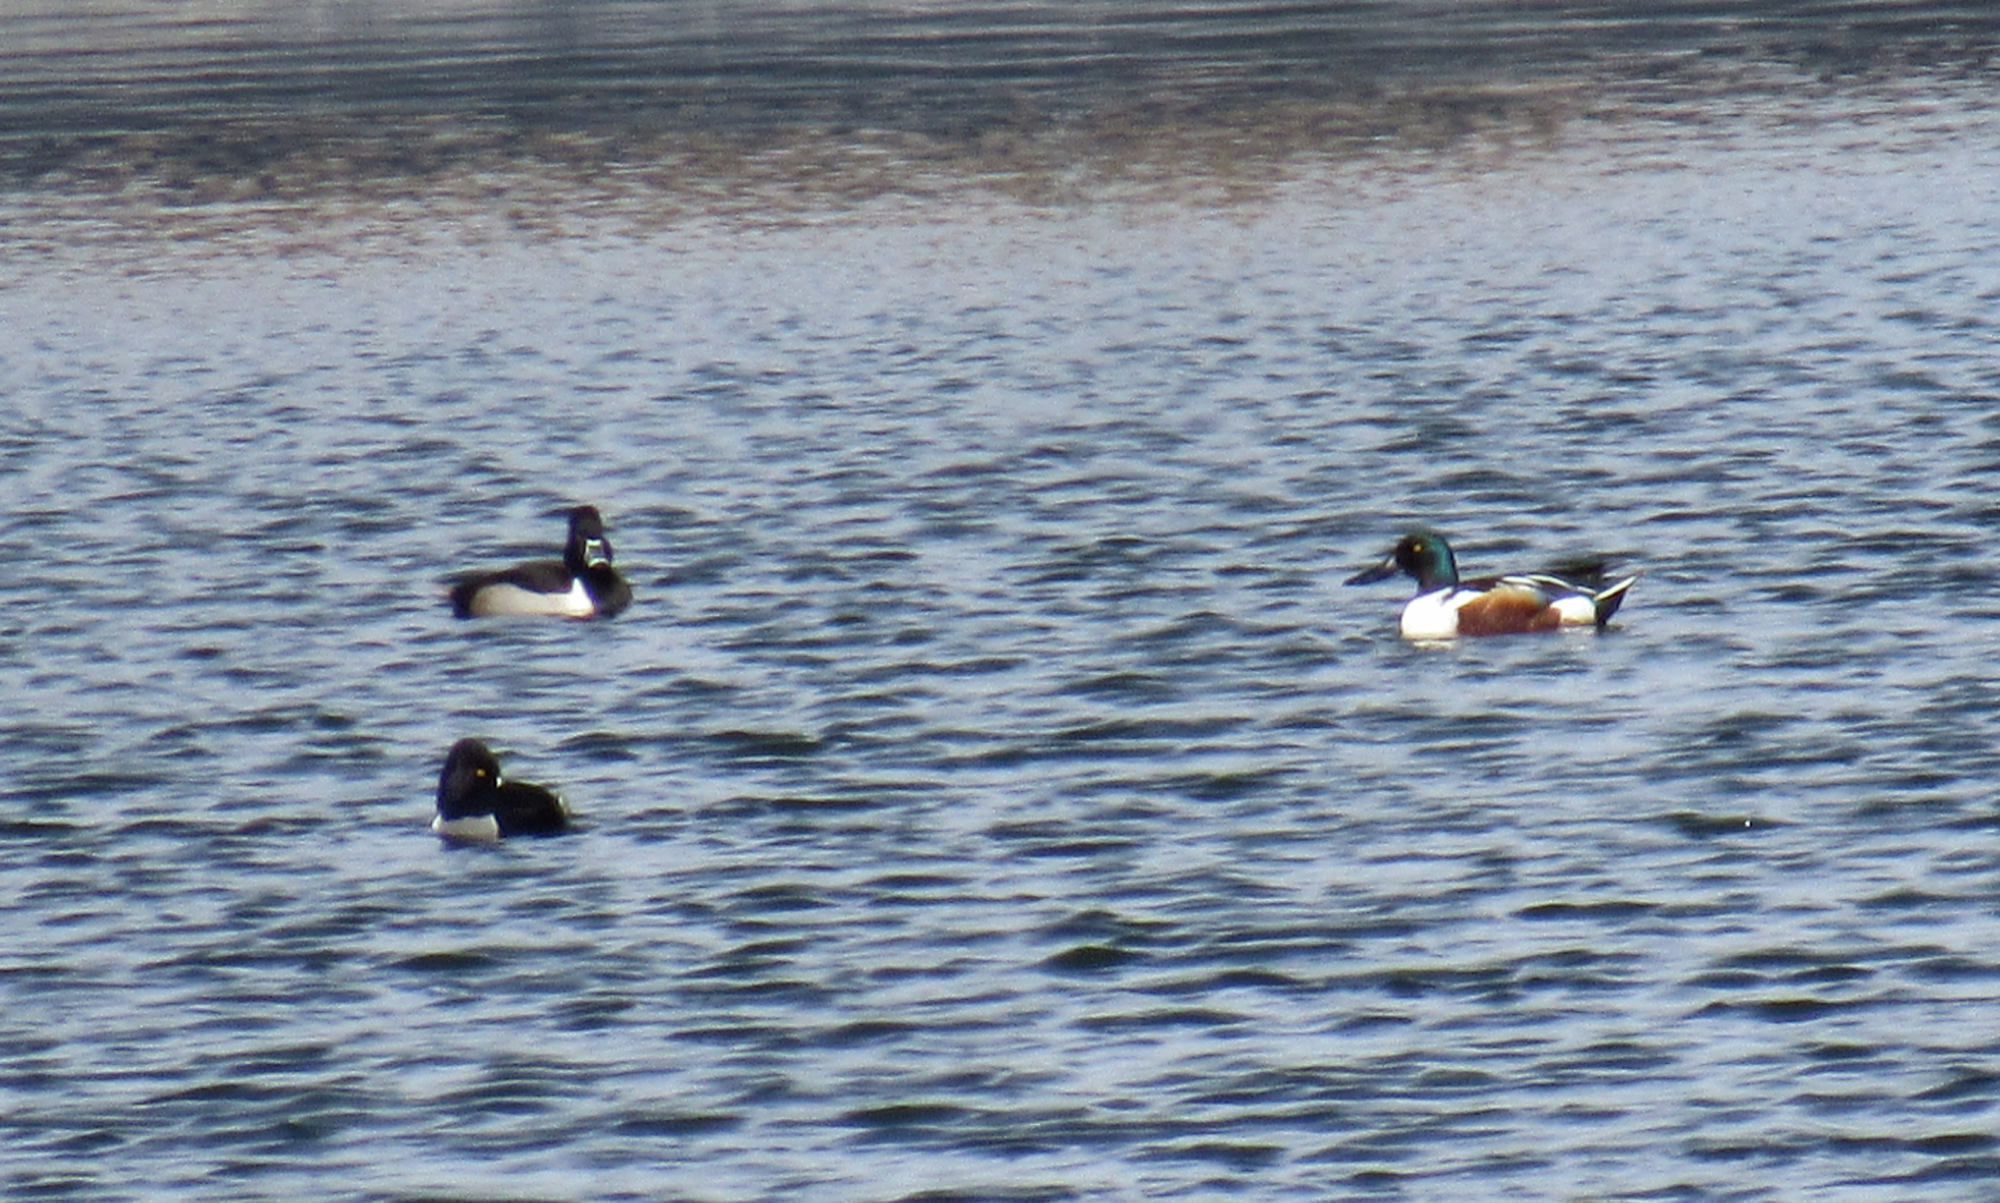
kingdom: Animalia
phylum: Chordata
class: Aves
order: Anseriformes
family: Anatidae
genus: Spatula
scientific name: Spatula clypeata
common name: Northern shoveler
